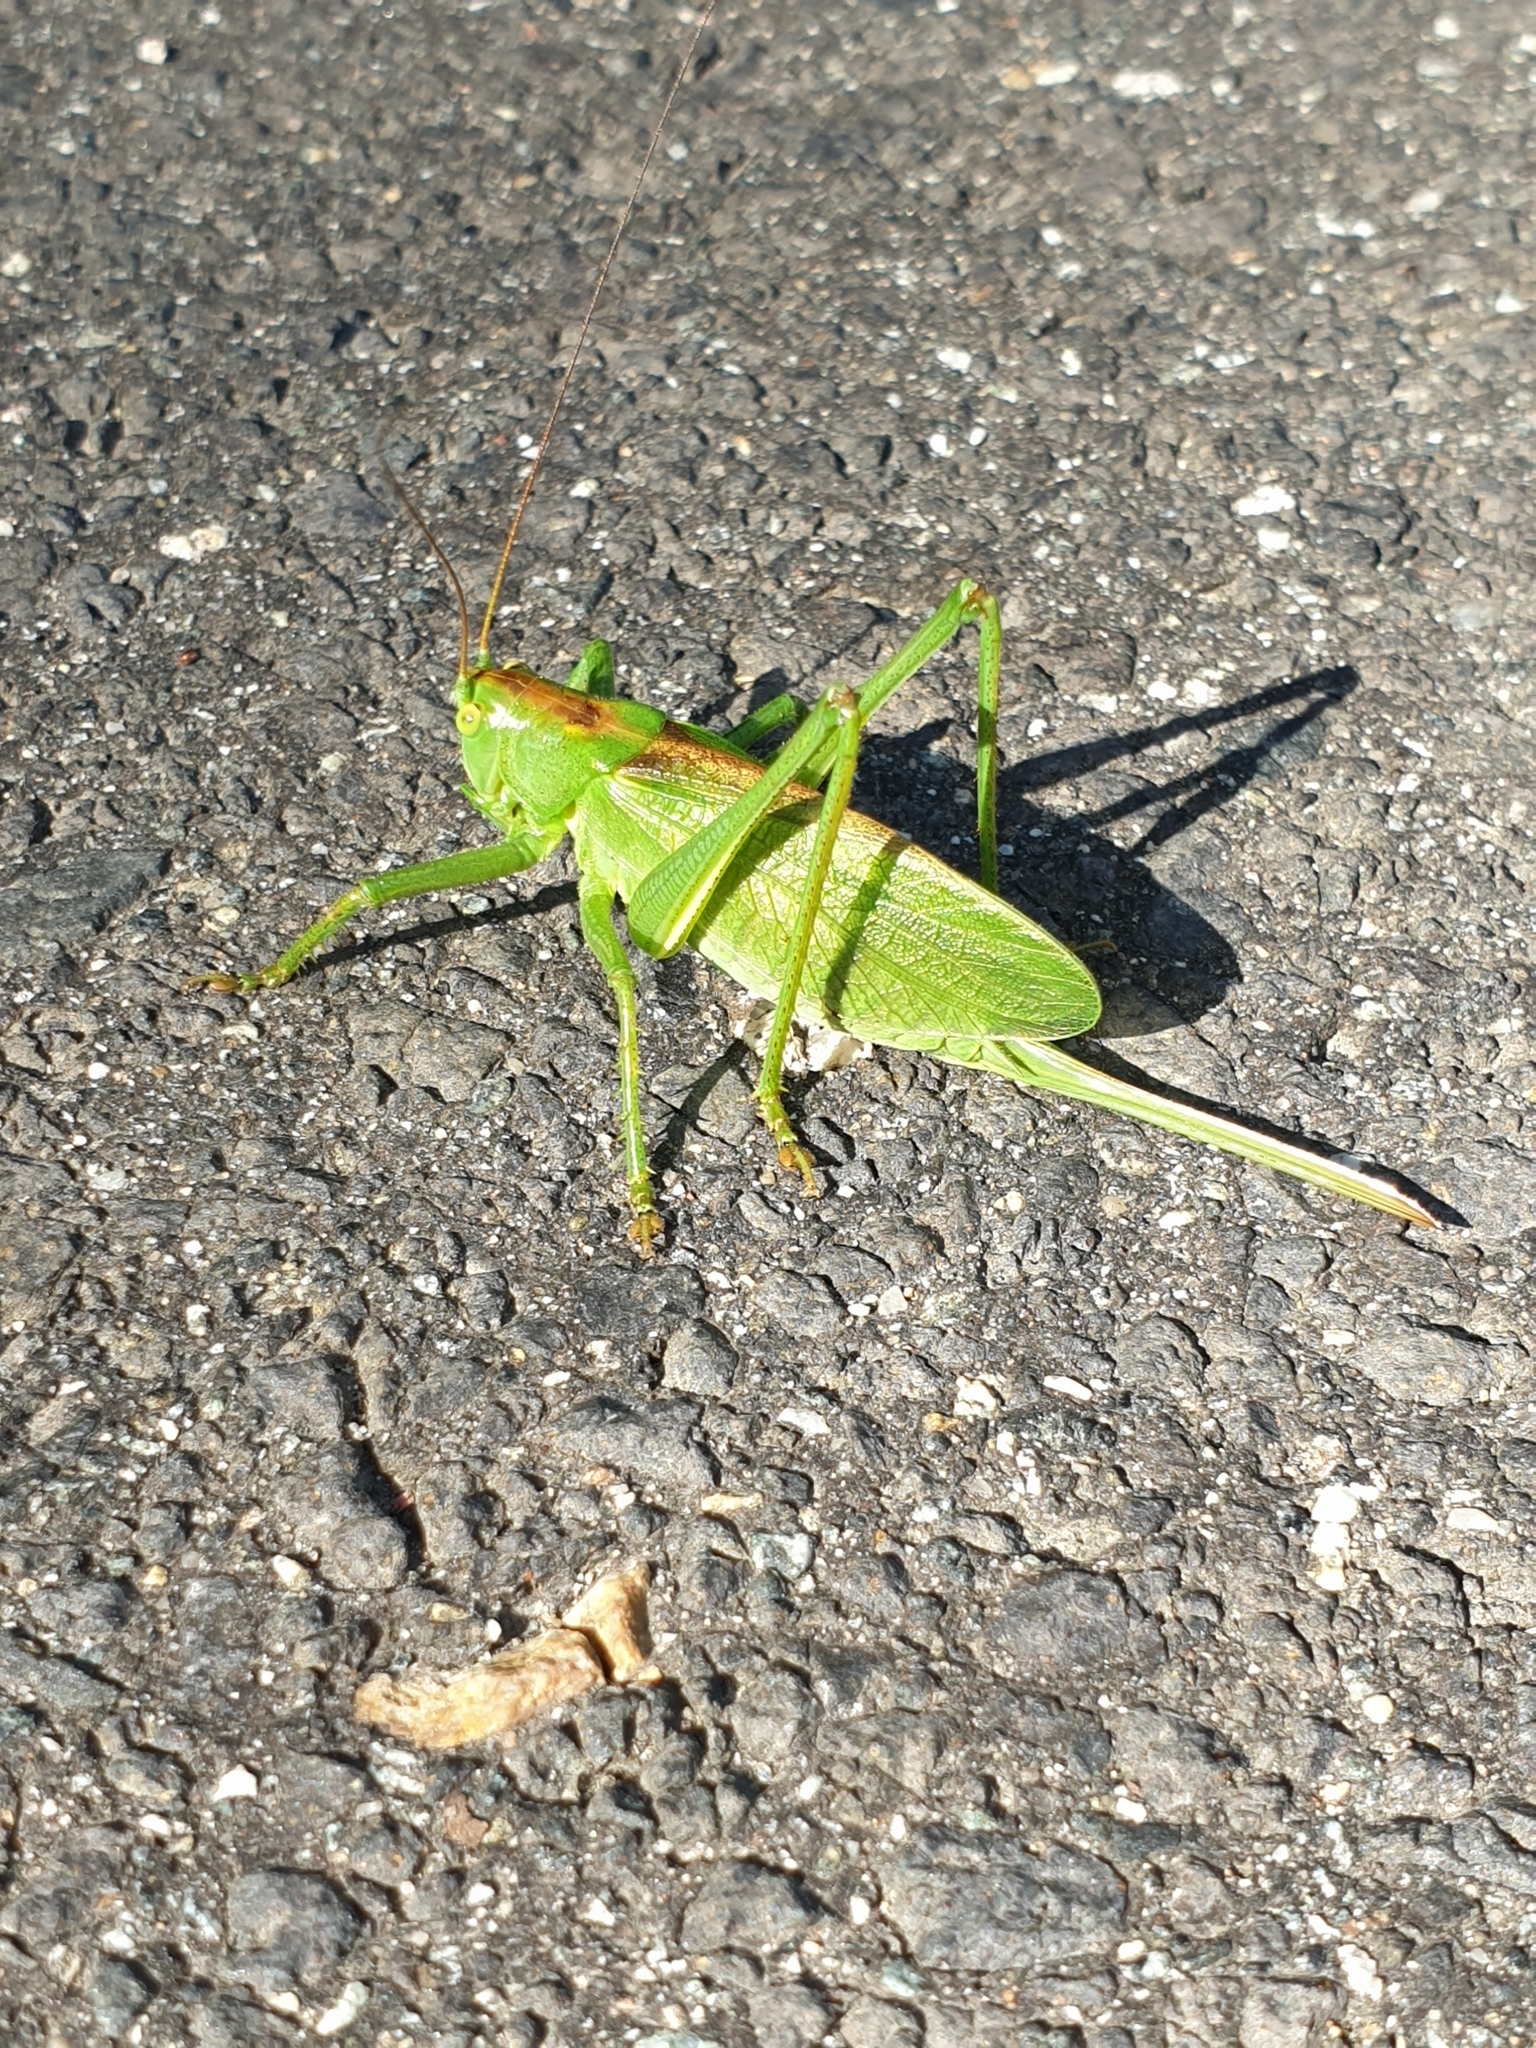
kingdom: Animalia
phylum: Arthropoda
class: Insecta
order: Orthoptera
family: Tettigoniidae
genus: Tettigonia
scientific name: Tettigonia cantans
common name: Upland green bush-cricket
